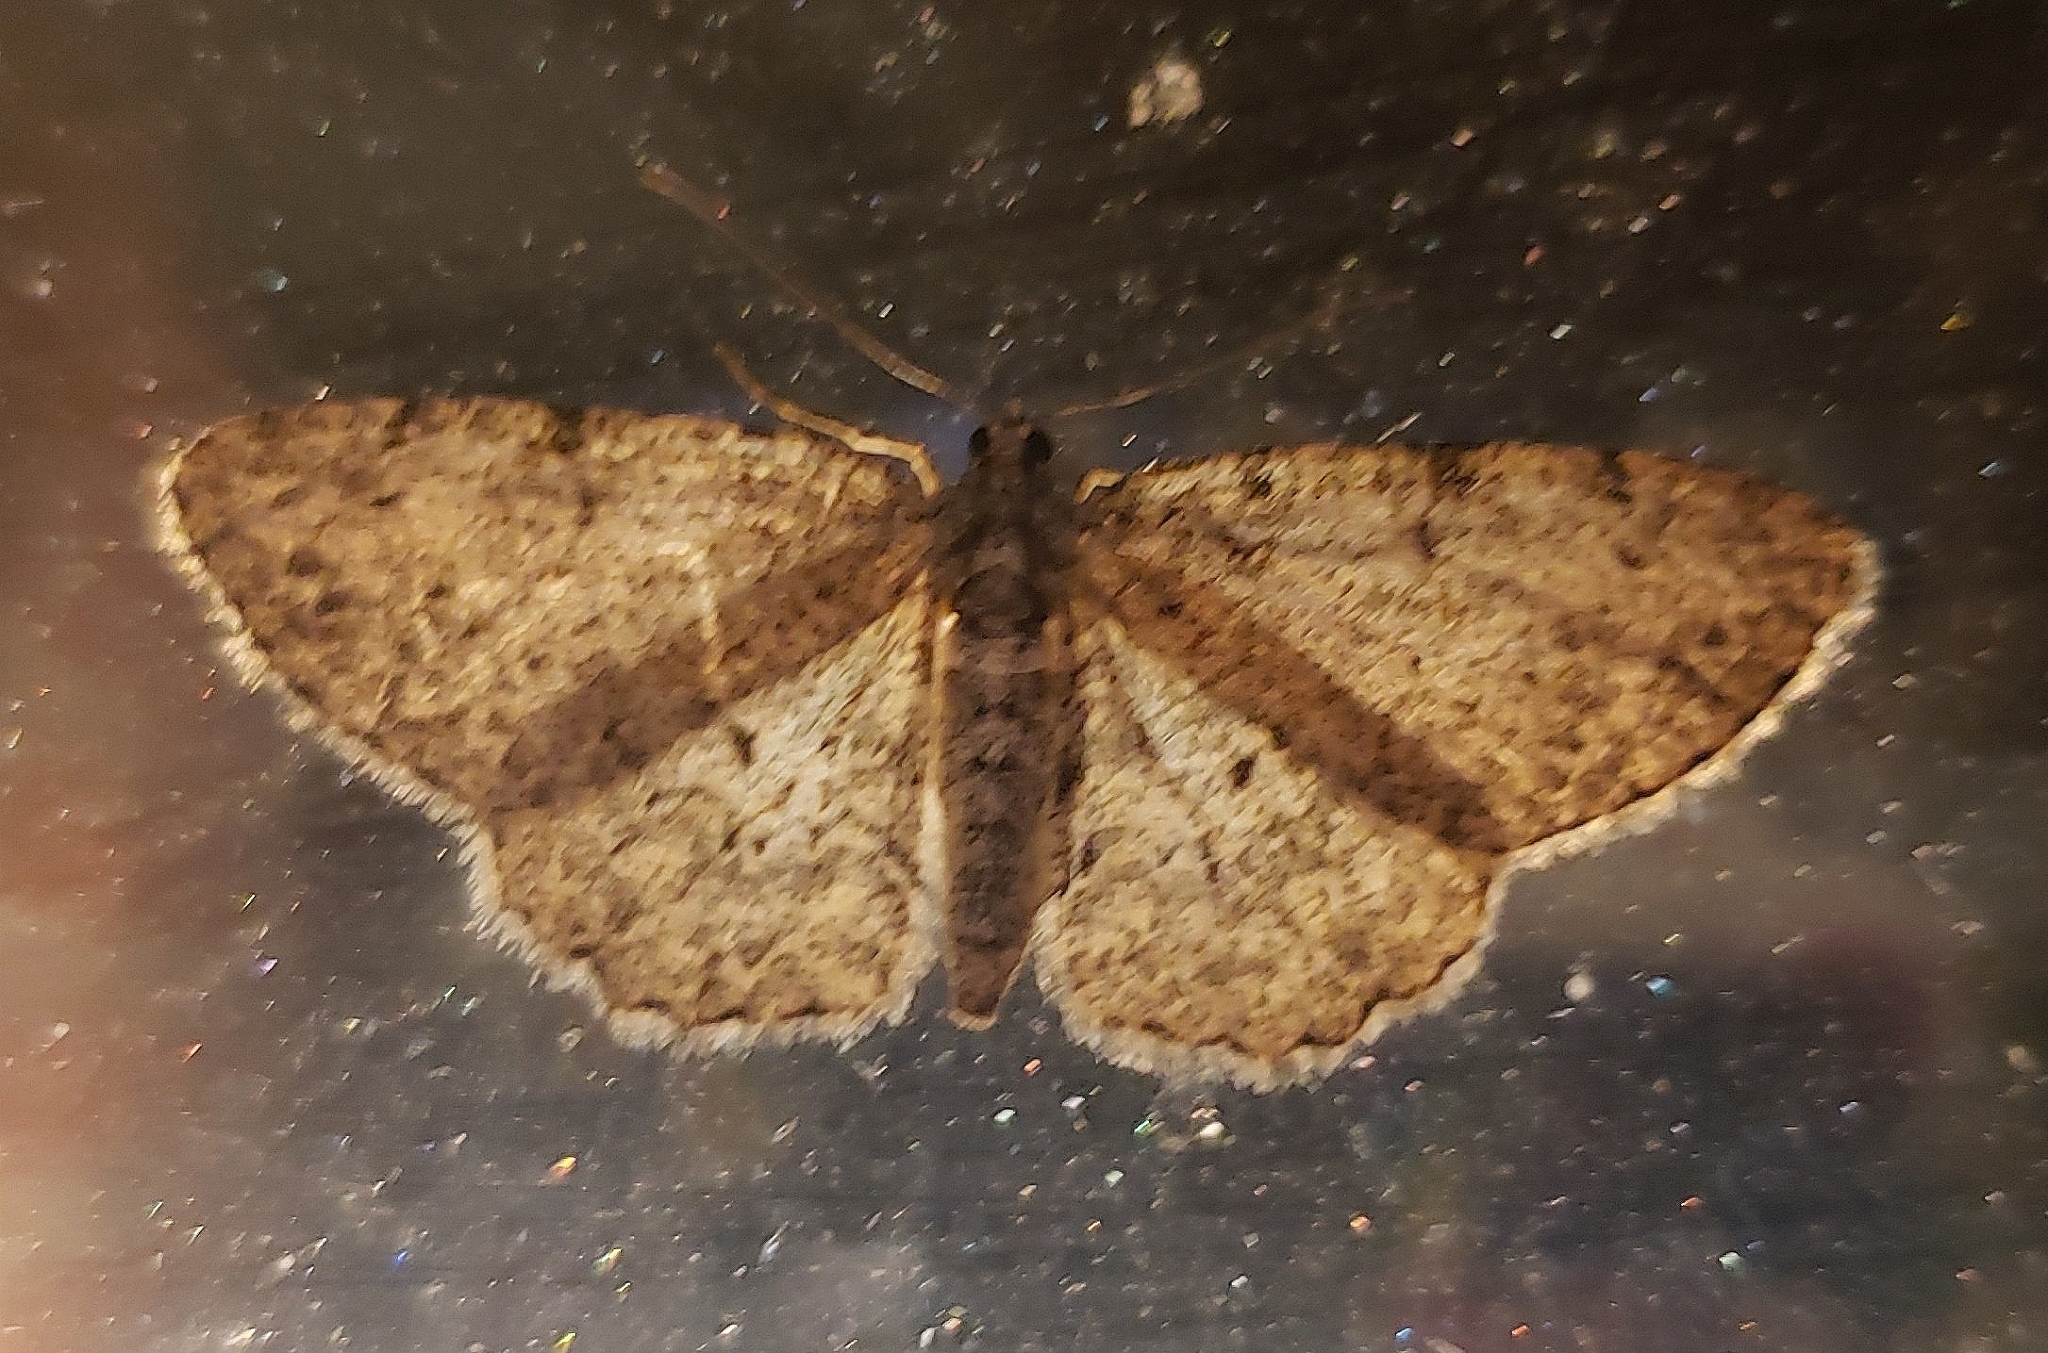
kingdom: Animalia
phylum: Arthropoda
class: Insecta
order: Lepidoptera
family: Geometridae
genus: Protoboarmia
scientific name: Protoboarmia porcelaria
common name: Porcelain gray
